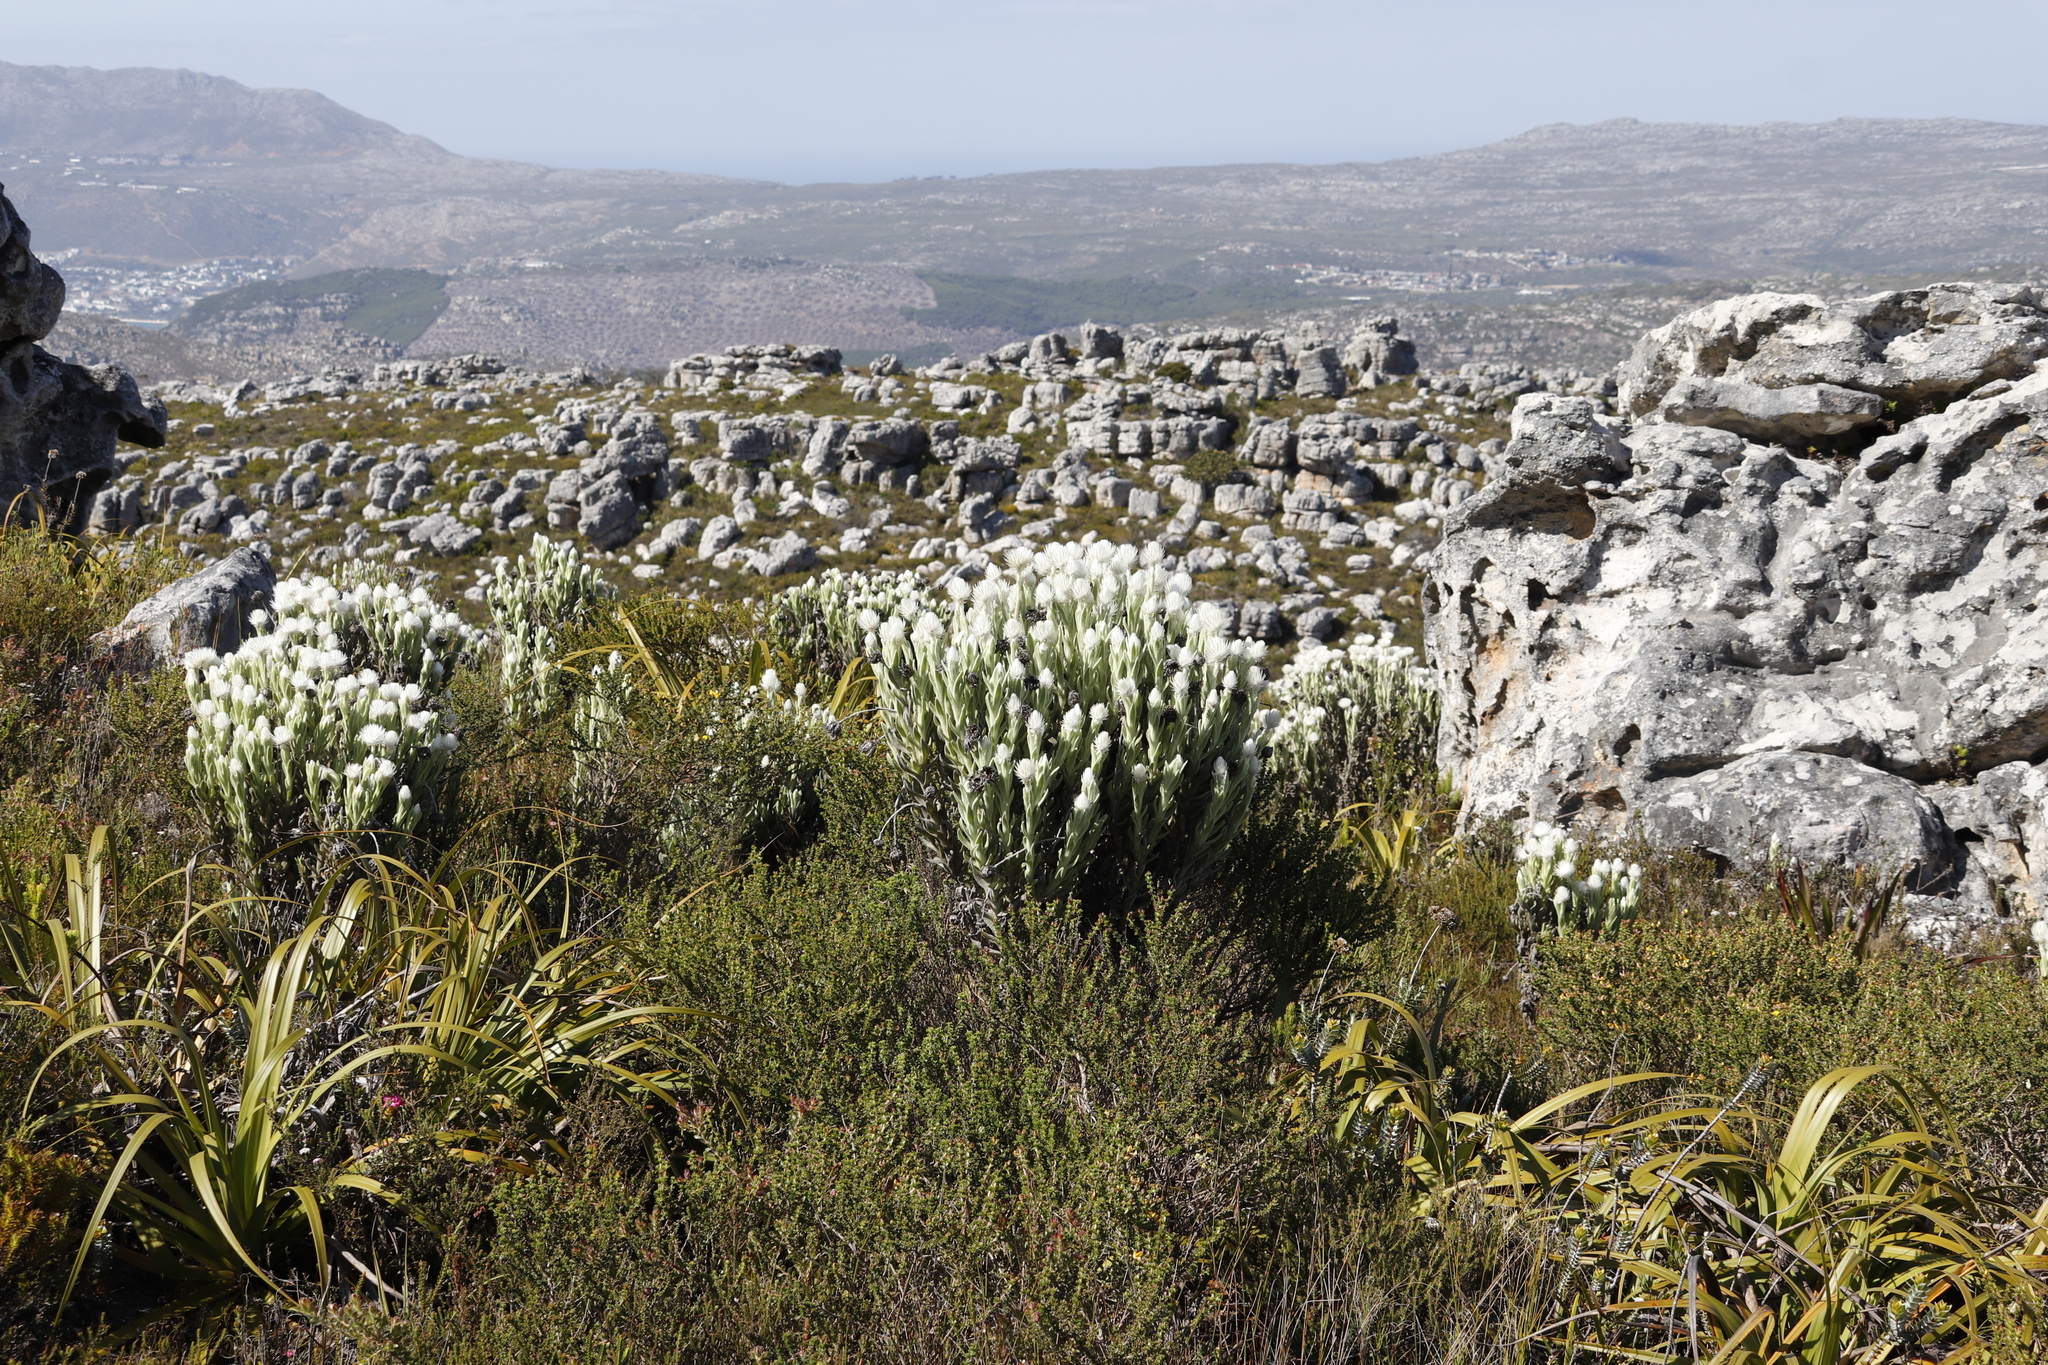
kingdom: Plantae
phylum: Tracheophyta
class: Magnoliopsida
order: Asterales
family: Asteraceae
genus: Syncarpha
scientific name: Syncarpha vestita
